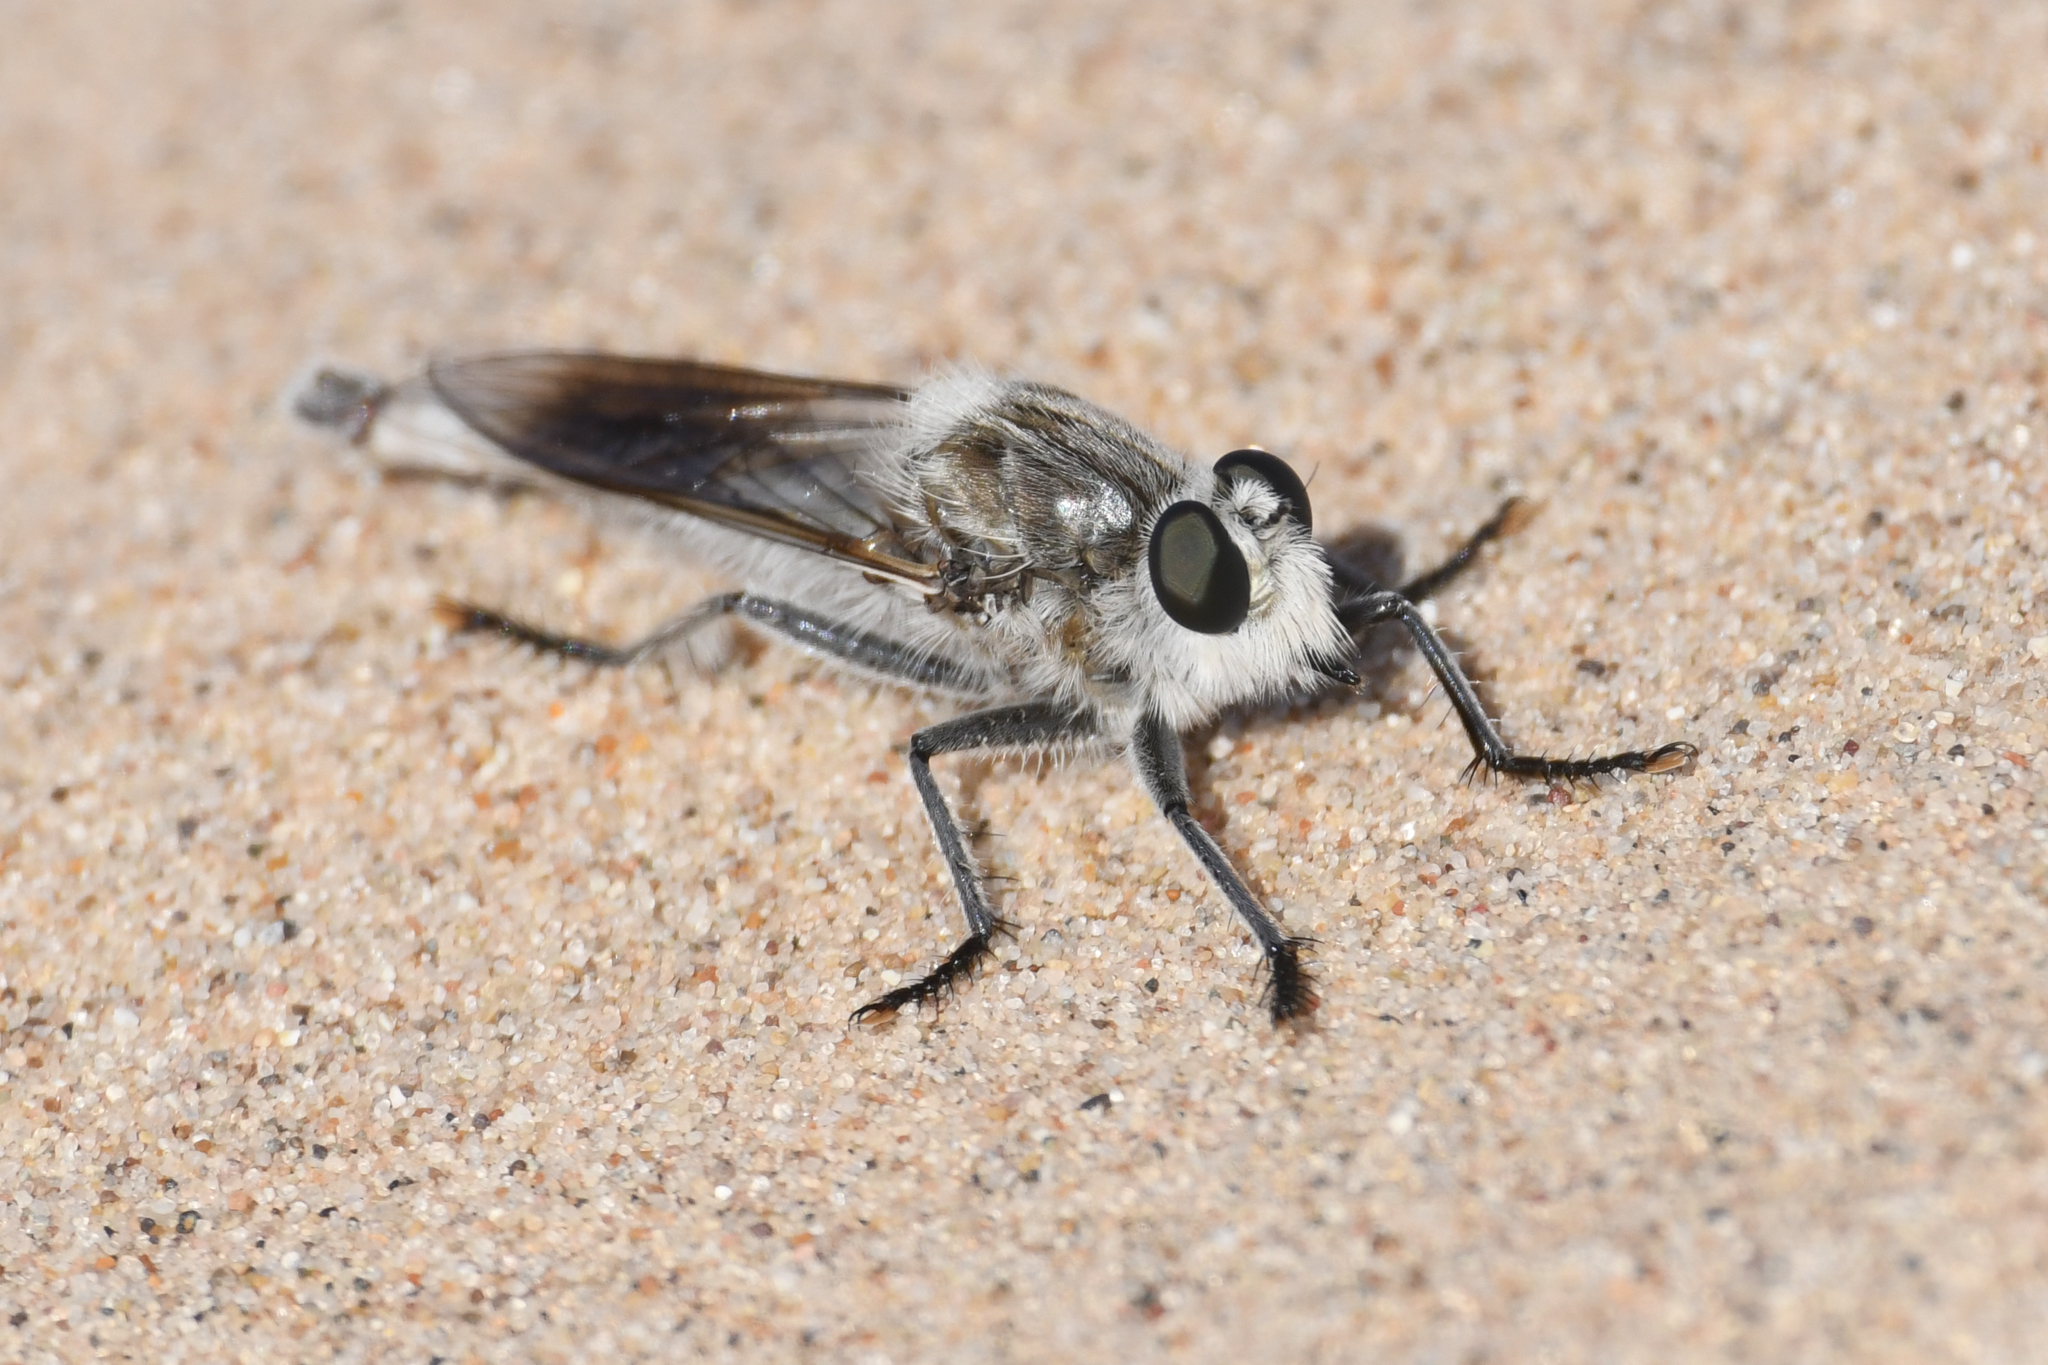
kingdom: Animalia
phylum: Arthropoda
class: Insecta
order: Diptera
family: Asilidae
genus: Proctacanthus
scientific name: Proctacanthus coquillettii
